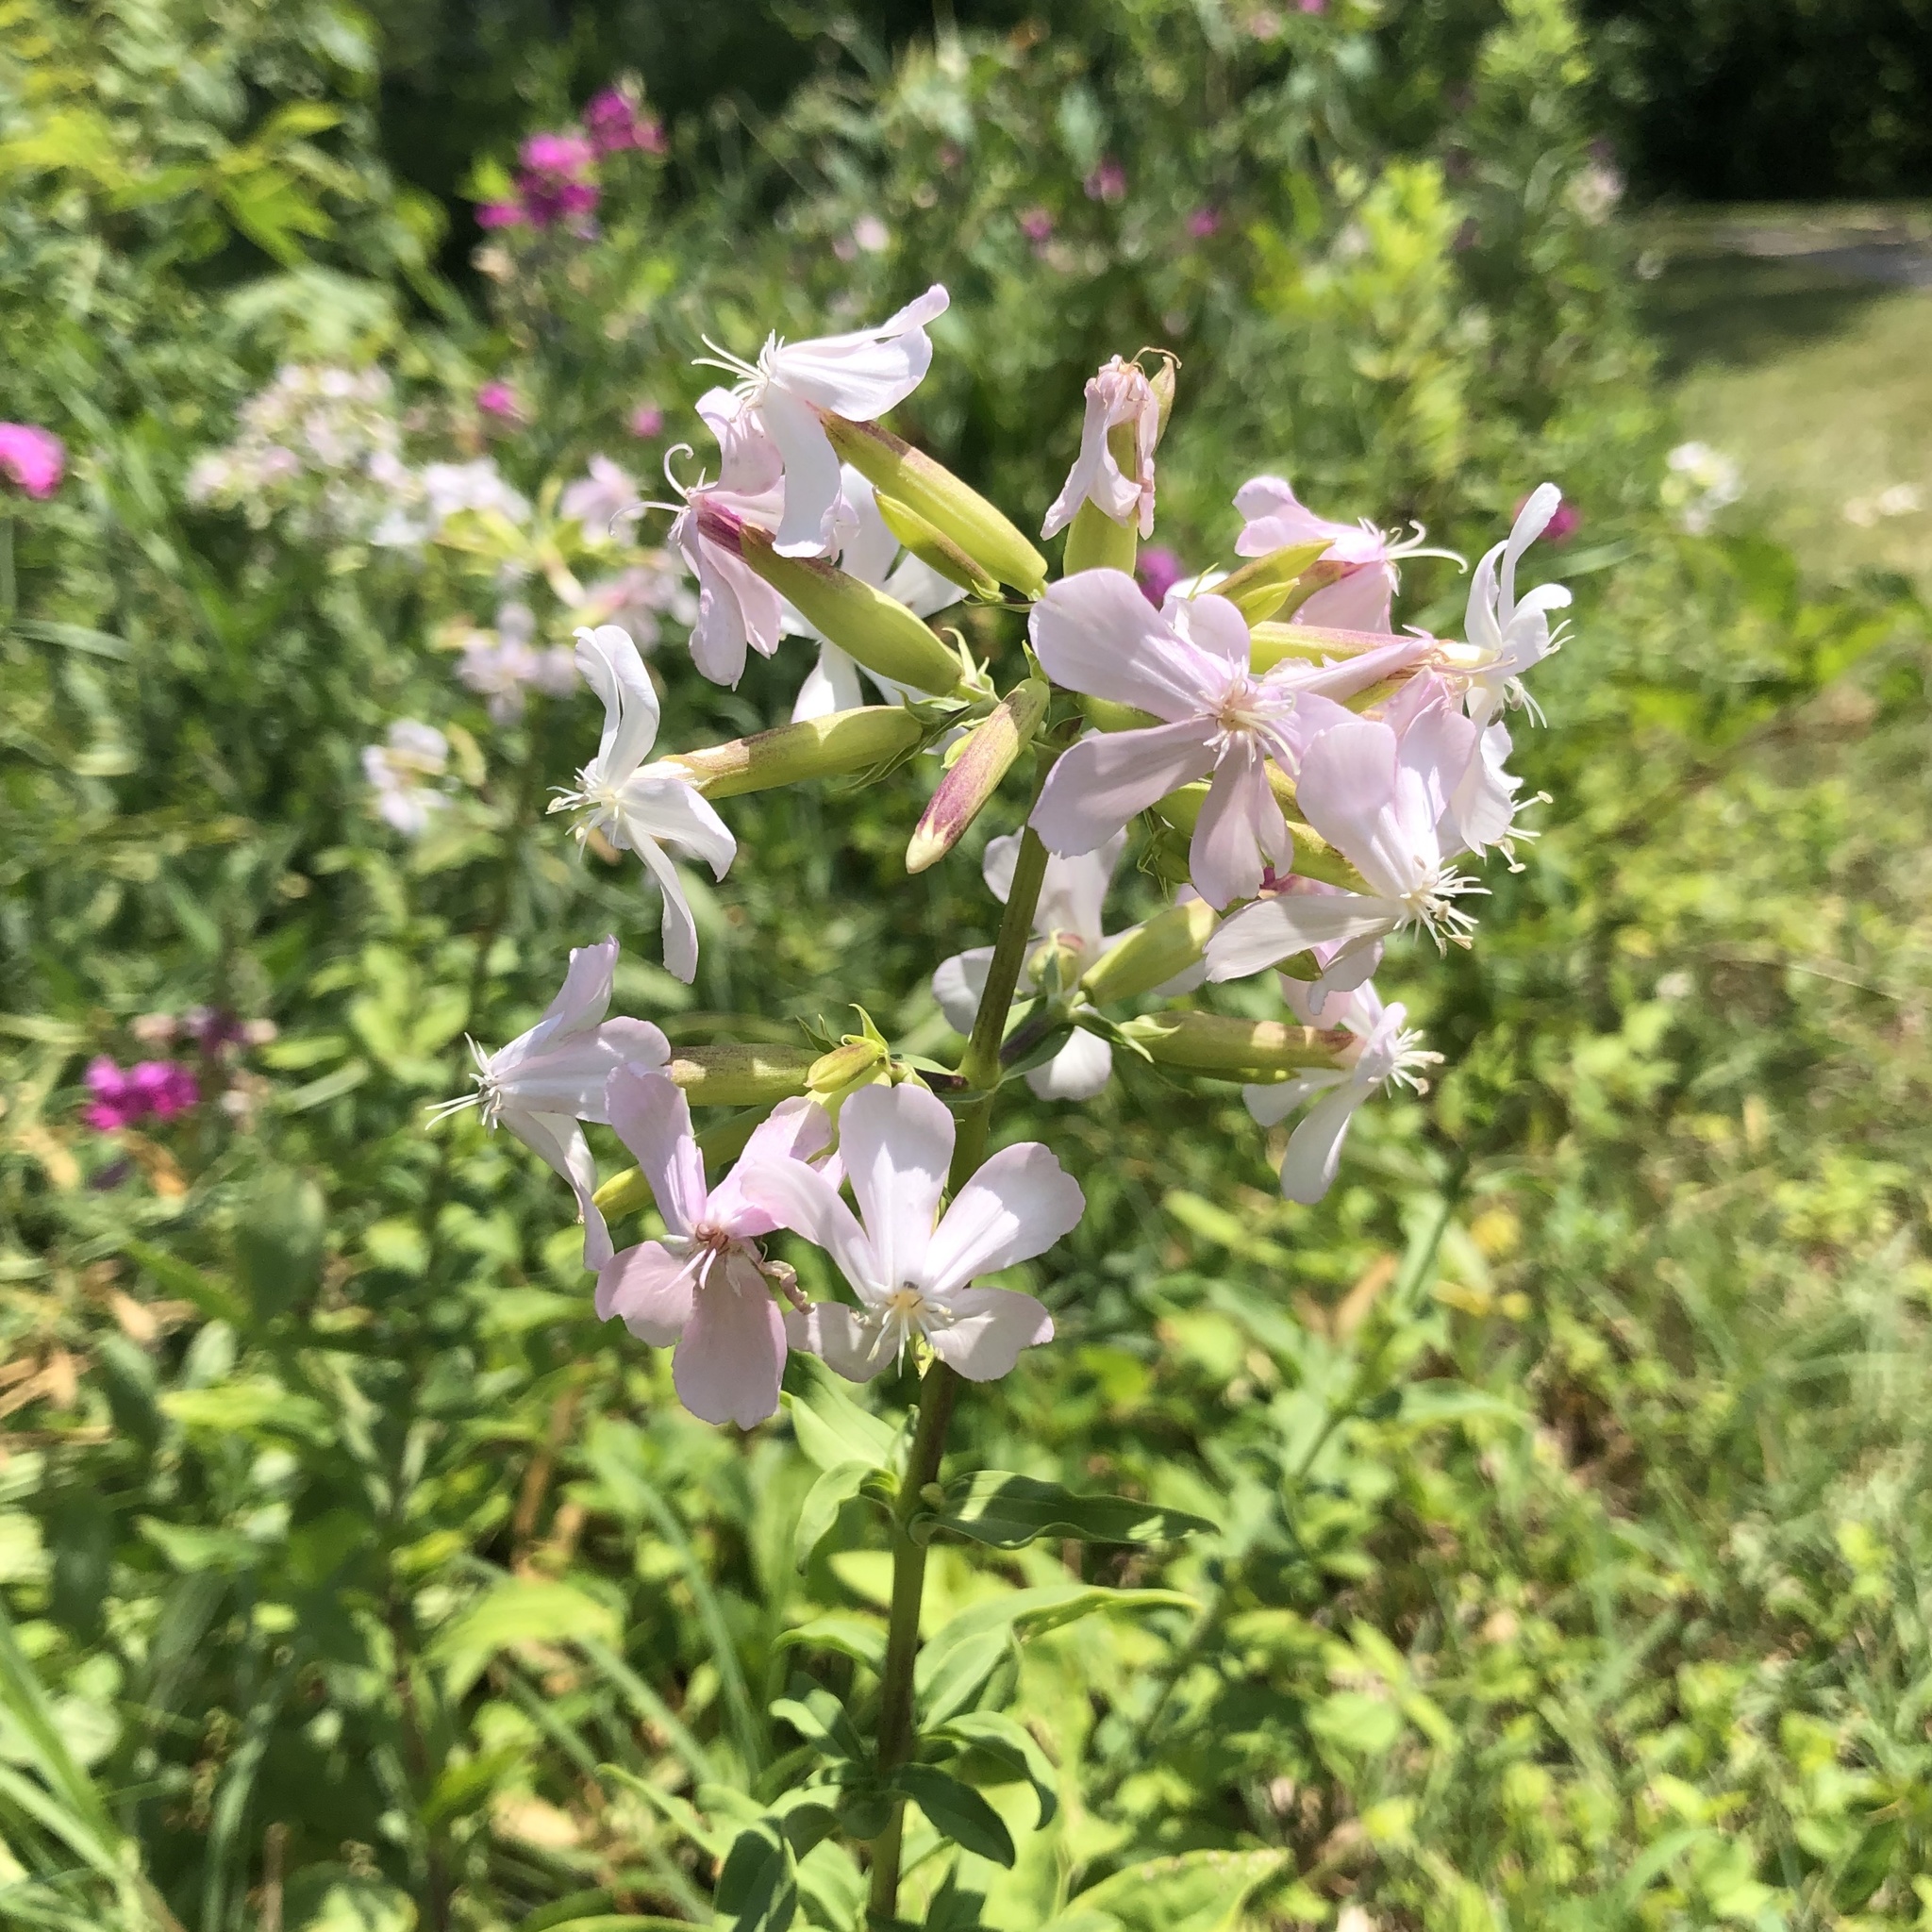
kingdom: Plantae
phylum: Tracheophyta
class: Magnoliopsida
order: Caryophyllales
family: Caryophyllaceae
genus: Saponaria
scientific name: Saponaria officinalis
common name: Soapwort
